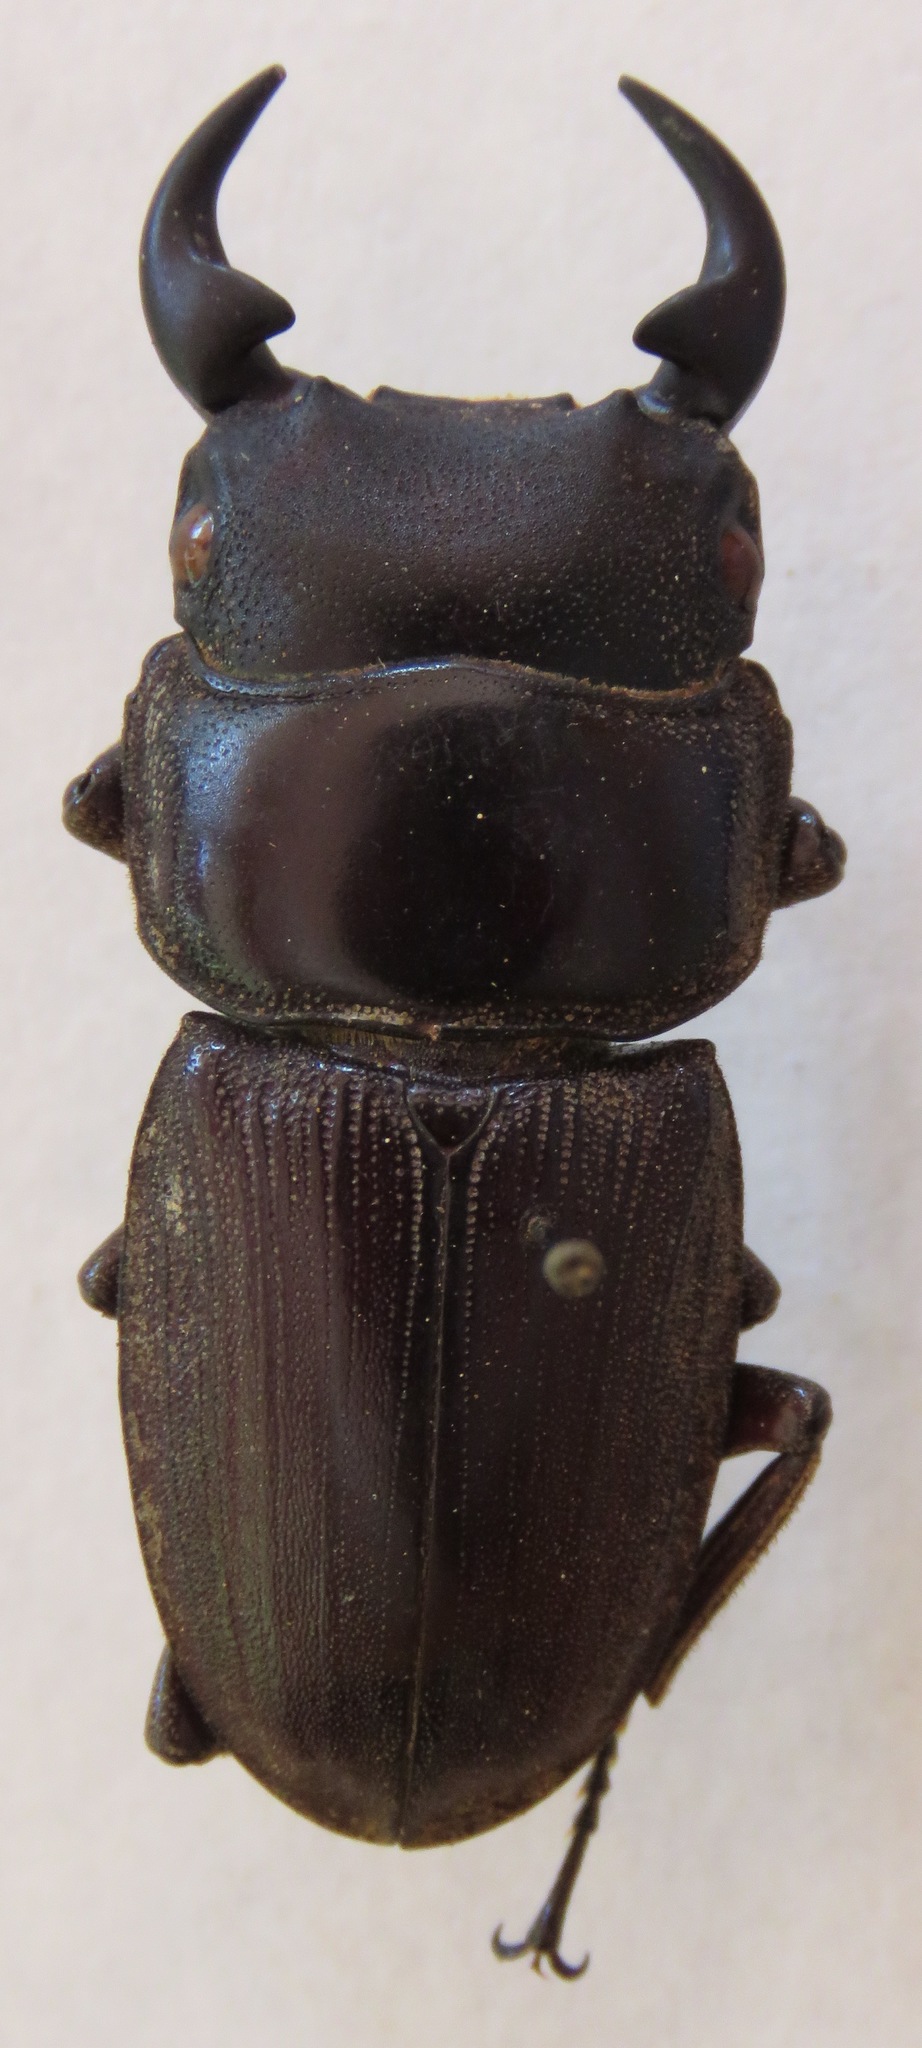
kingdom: Animalia
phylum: Arthropoda
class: Insecta
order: Coleoptera
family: Lucanidae
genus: Dorcus
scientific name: Dorcus ritsemae
